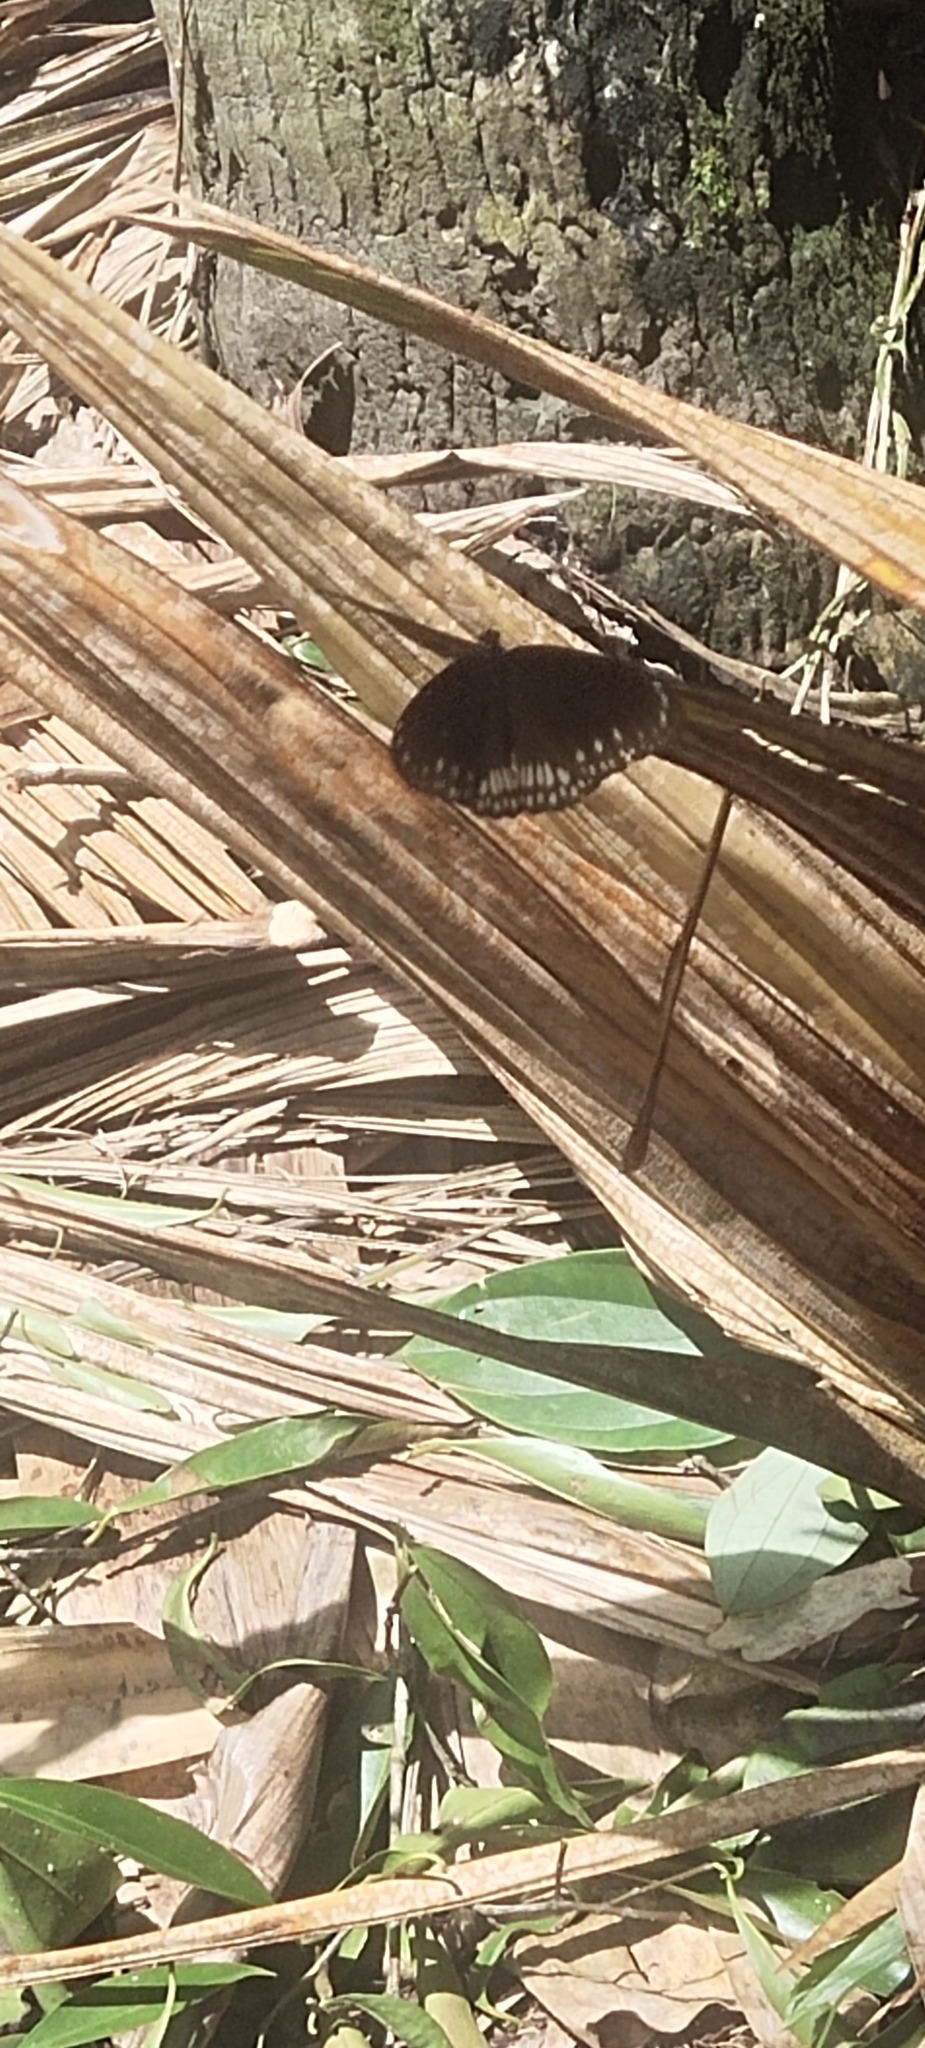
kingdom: Animalia
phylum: Arthropoda
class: Insecta
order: Lepidoptera
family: Nymphalidae
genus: Euploea
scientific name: Euploea core
